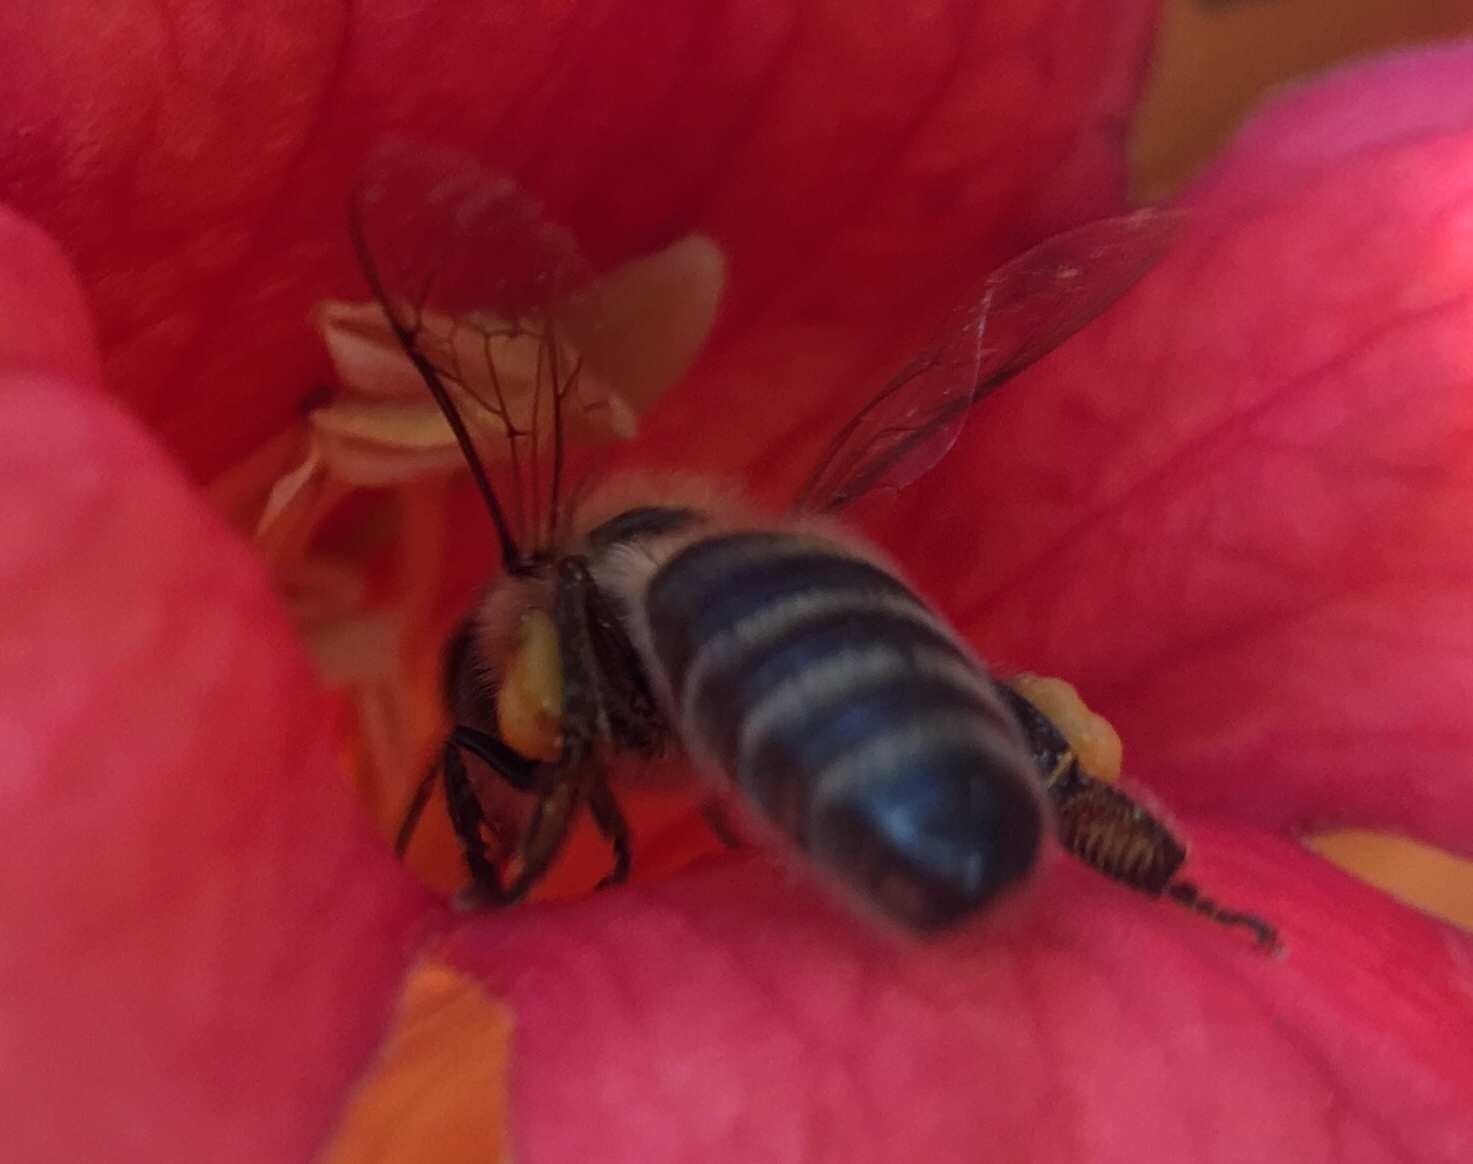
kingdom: Animalia
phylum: Arthropoda
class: Insecta
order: Hymenoptera
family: Apidae
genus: Apis
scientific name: Apis mellifera
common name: Honey bee
